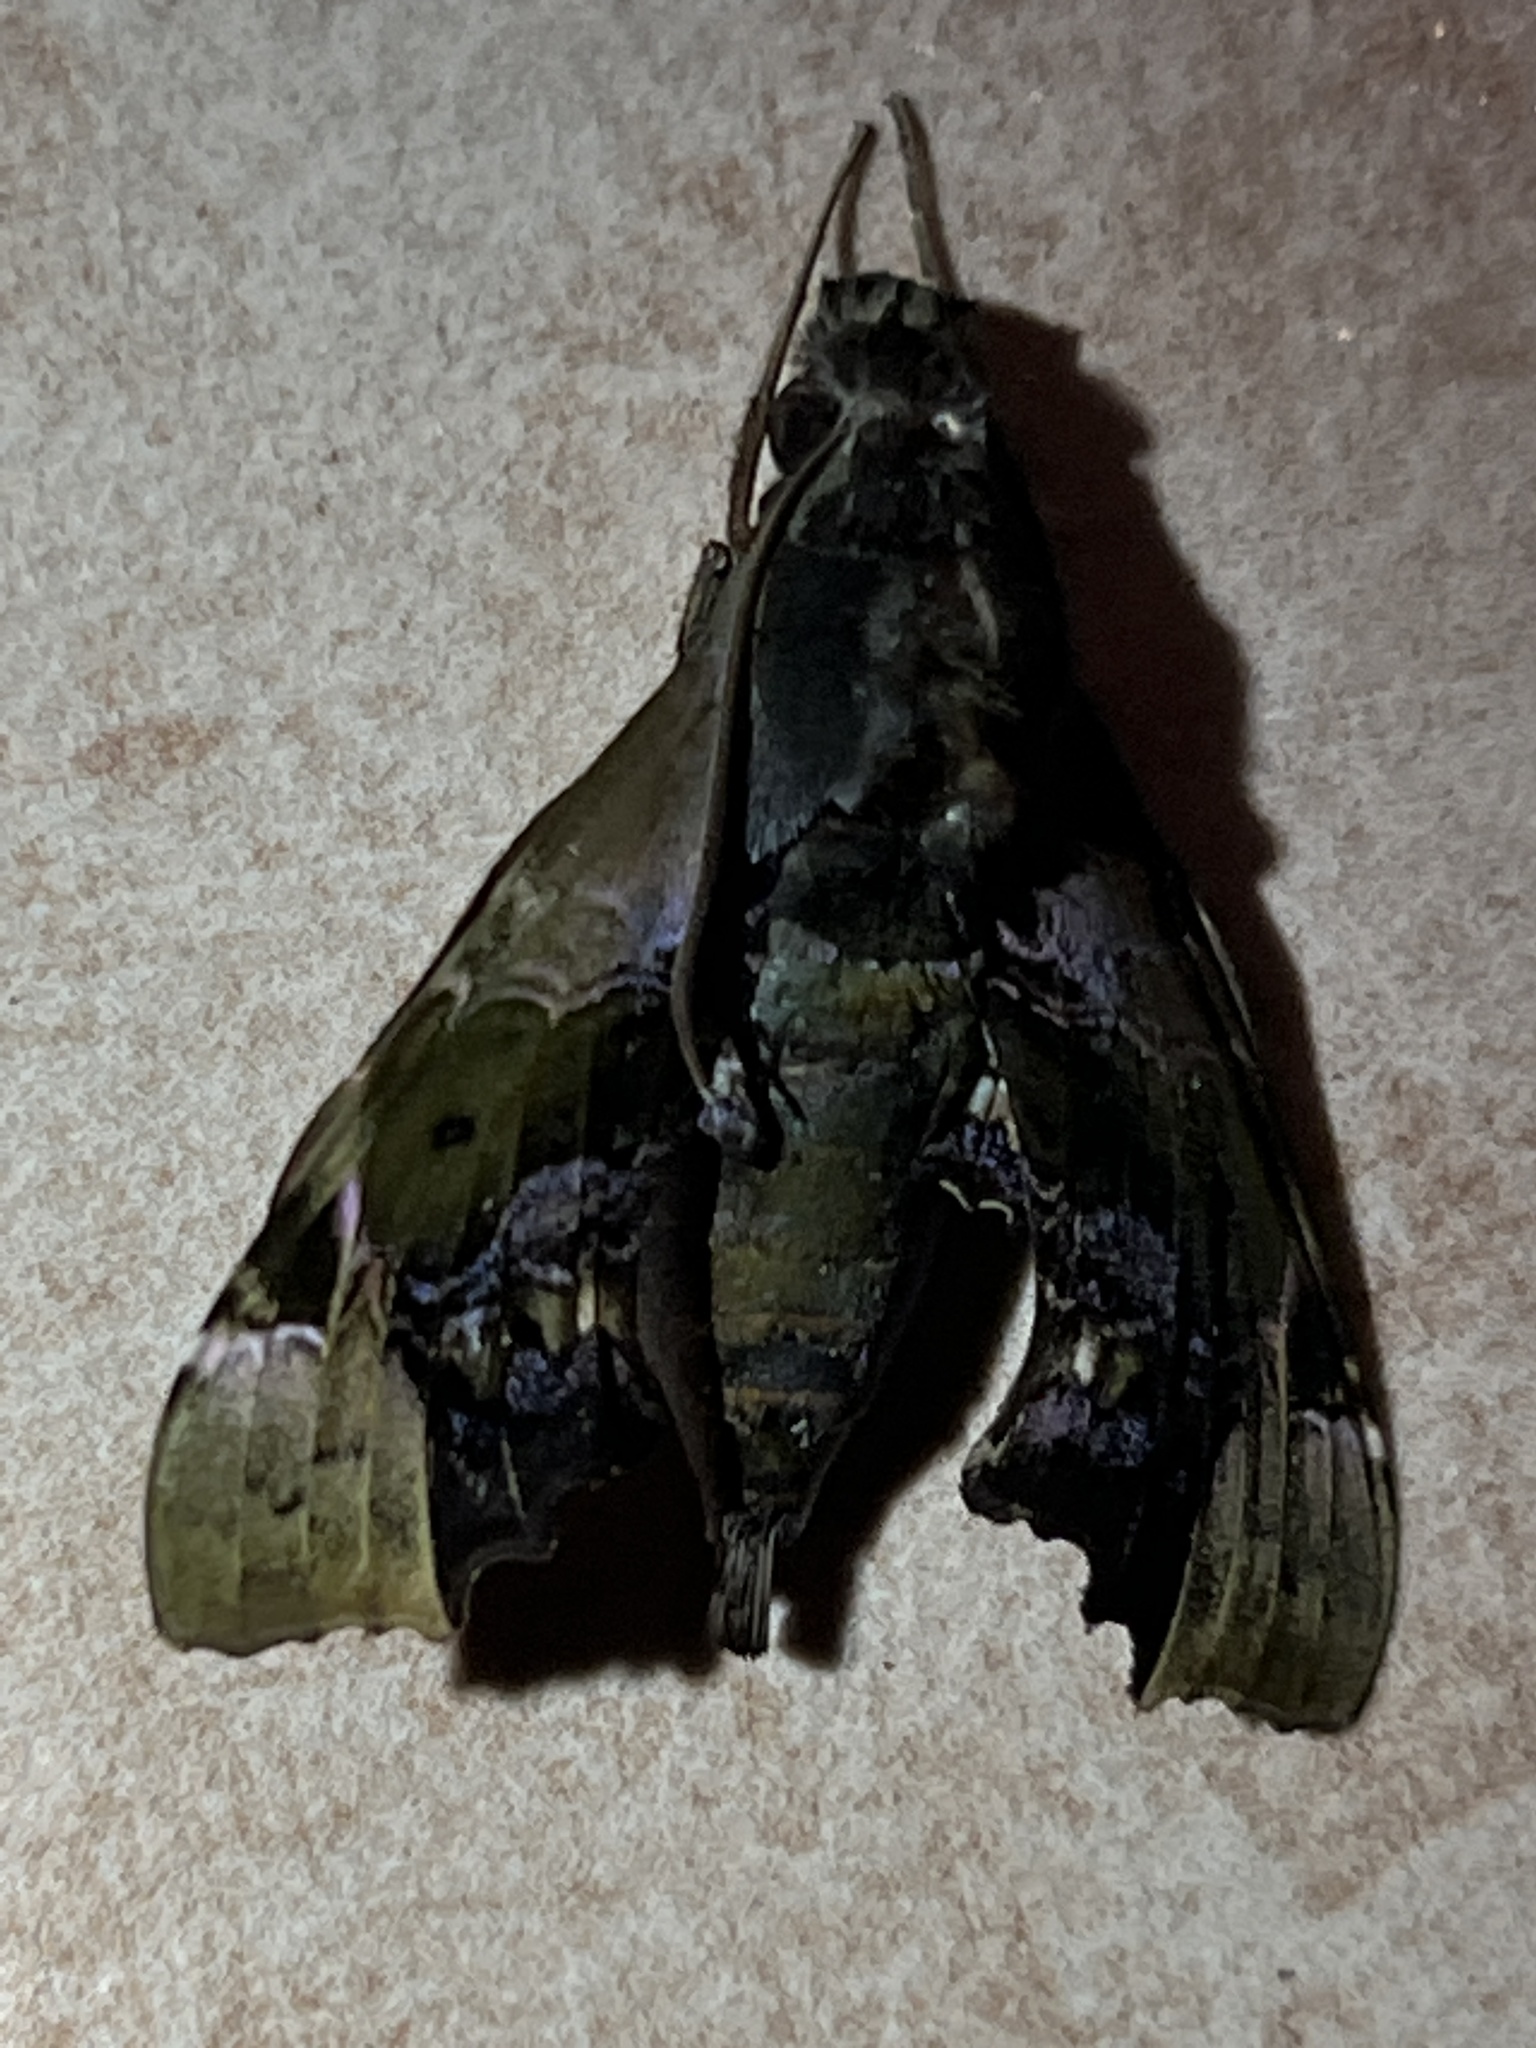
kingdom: Animalia
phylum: Arthropoda
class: Insecta
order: Lepidoptera
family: Sphingidae
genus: Unzela
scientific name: Unzela pronoe
